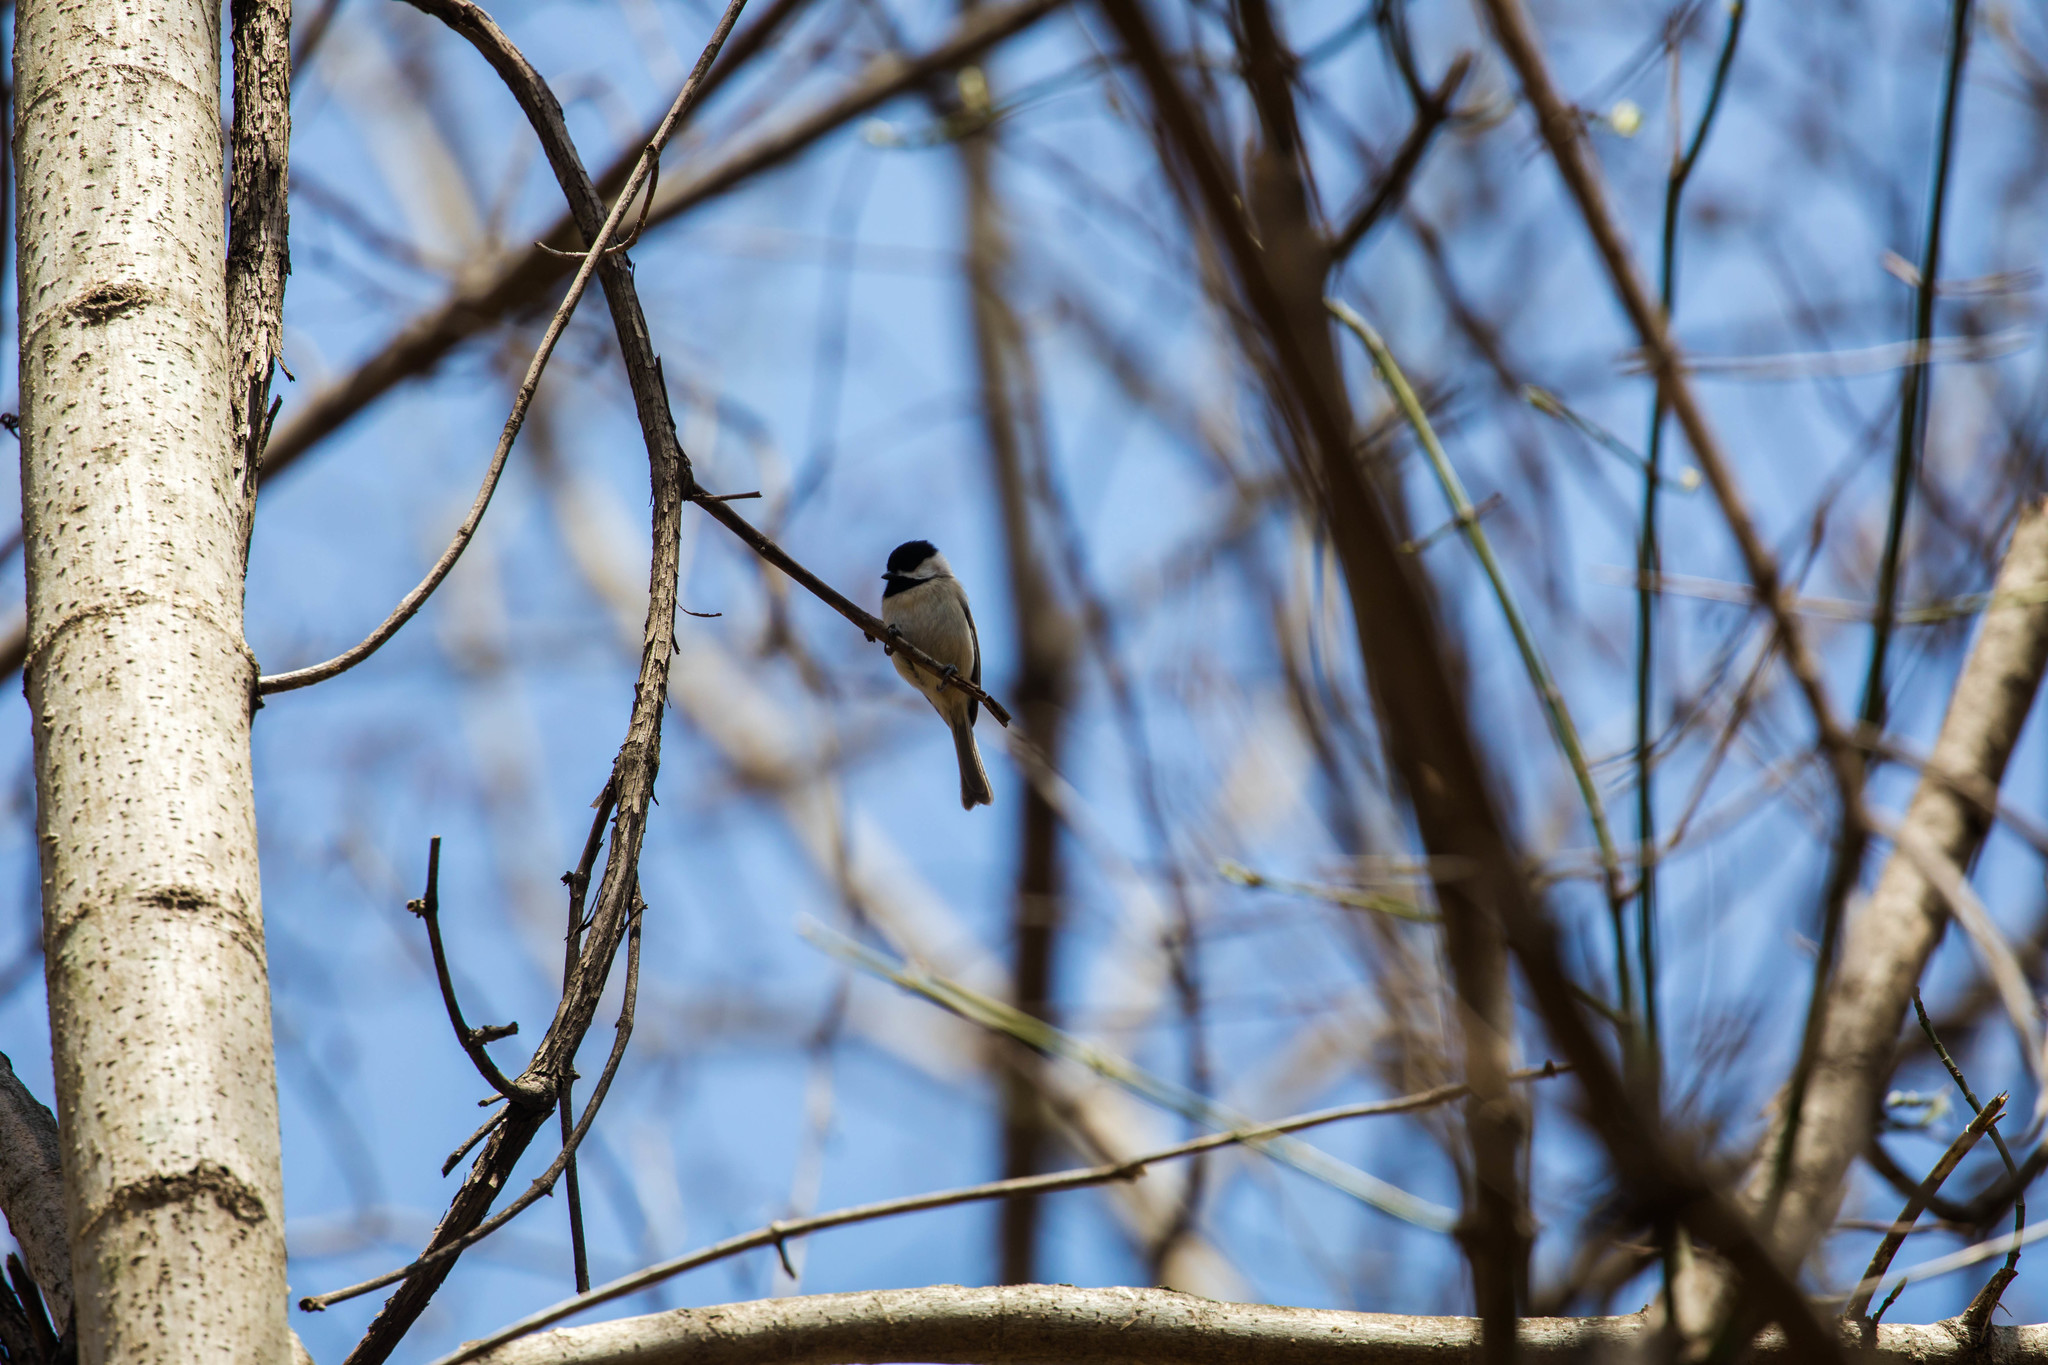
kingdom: Animalia
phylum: Chordata
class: Aves
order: Passeriformes
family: Paridae
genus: Poecile
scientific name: Poecile carolinensis
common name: Carolina chickadee
